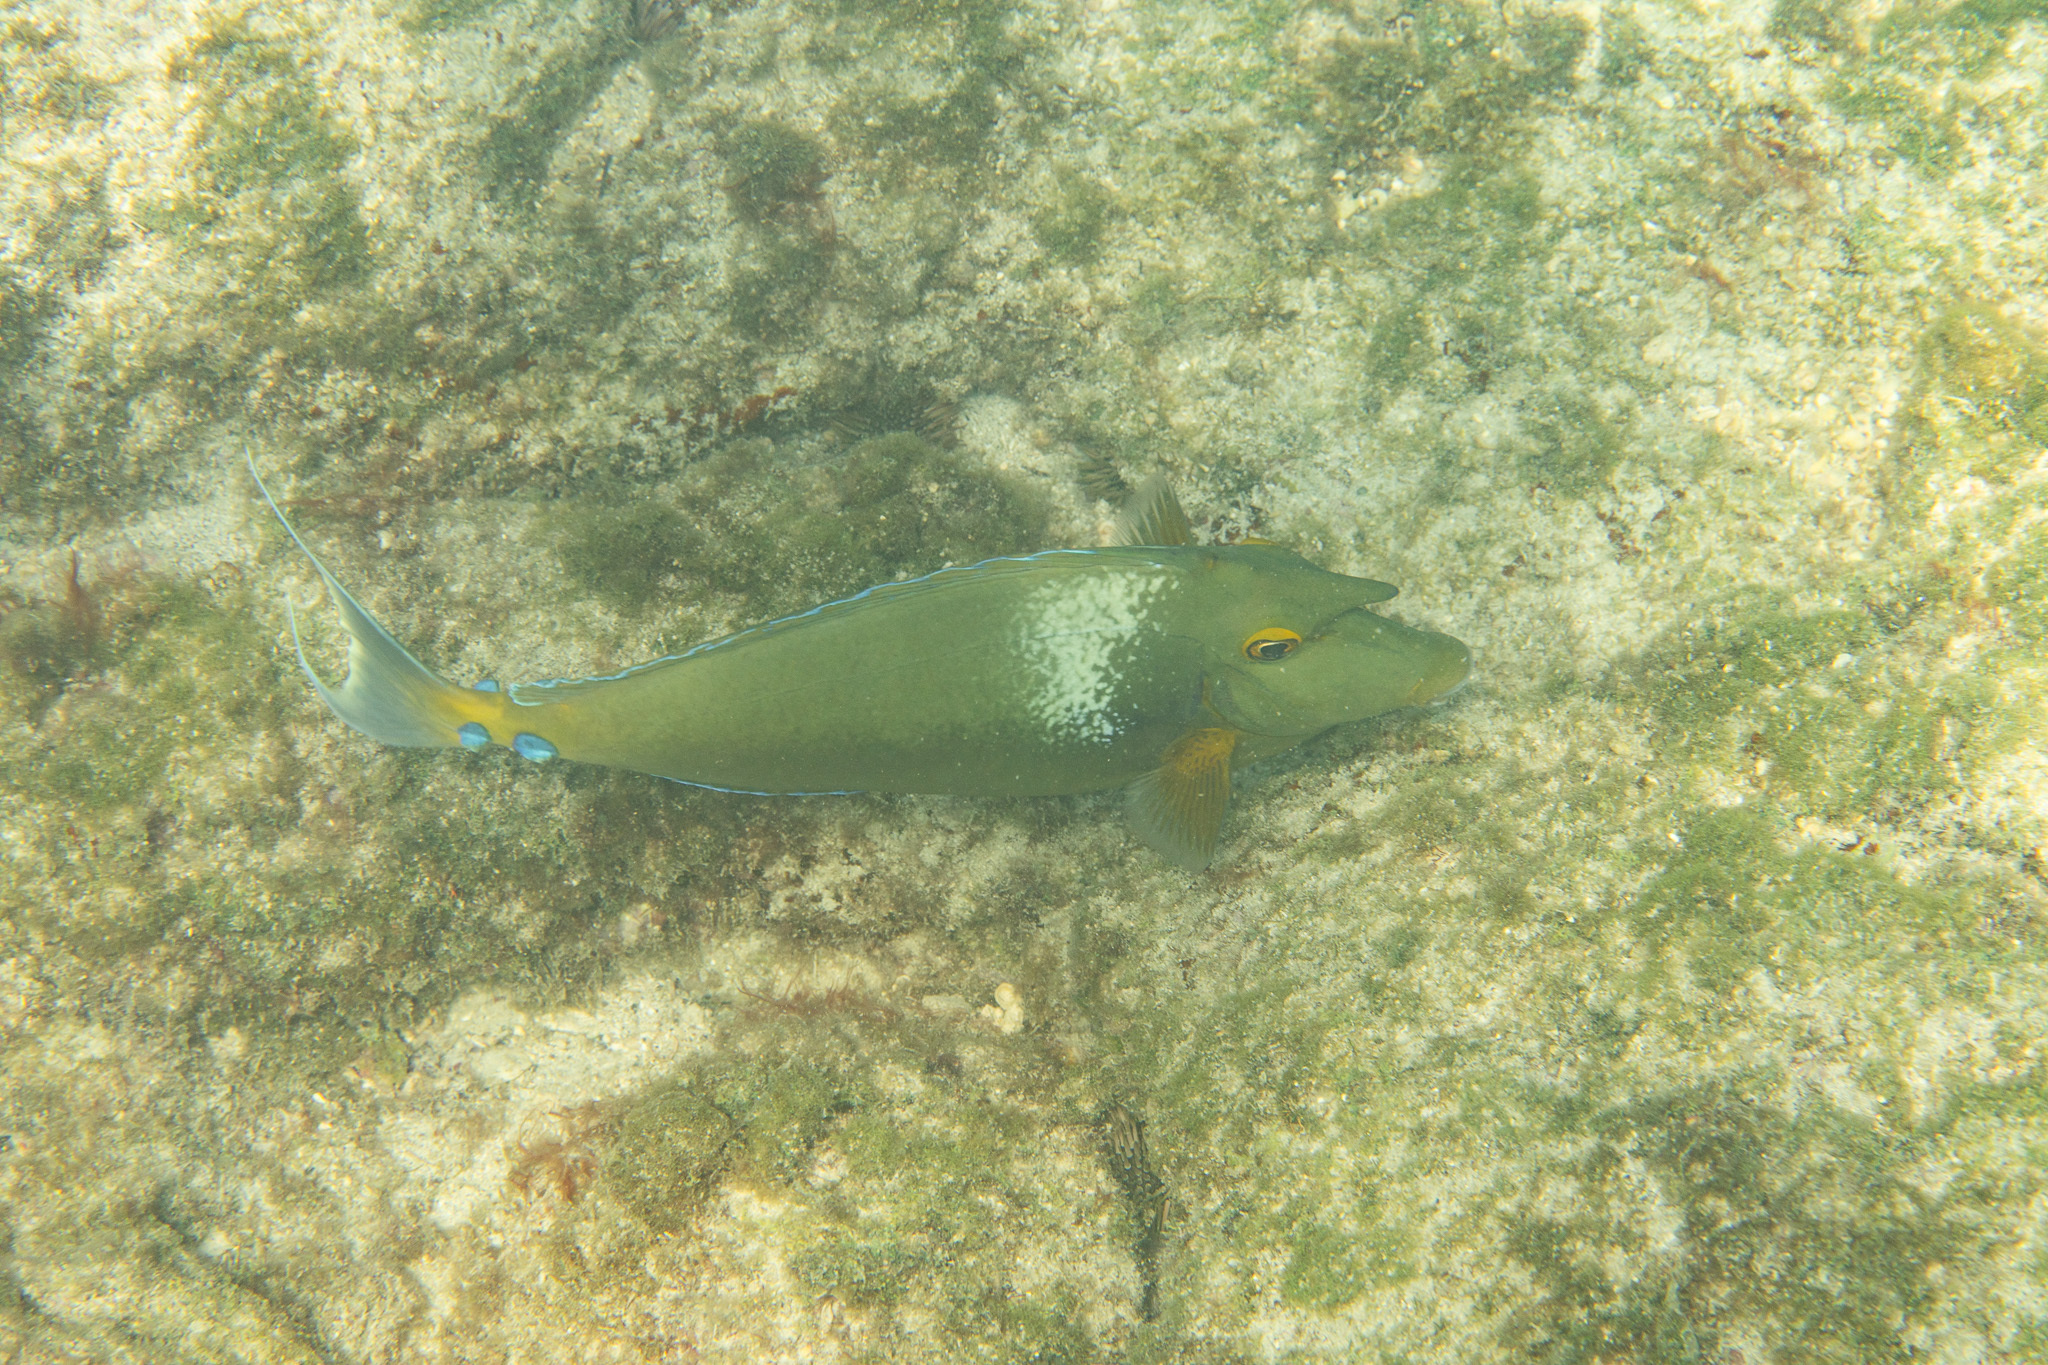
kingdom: Animalia
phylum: Chordata
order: Perciformes
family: Acanthuridae
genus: Naso
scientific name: Naso unicornis
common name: Bluespine unicornfish
